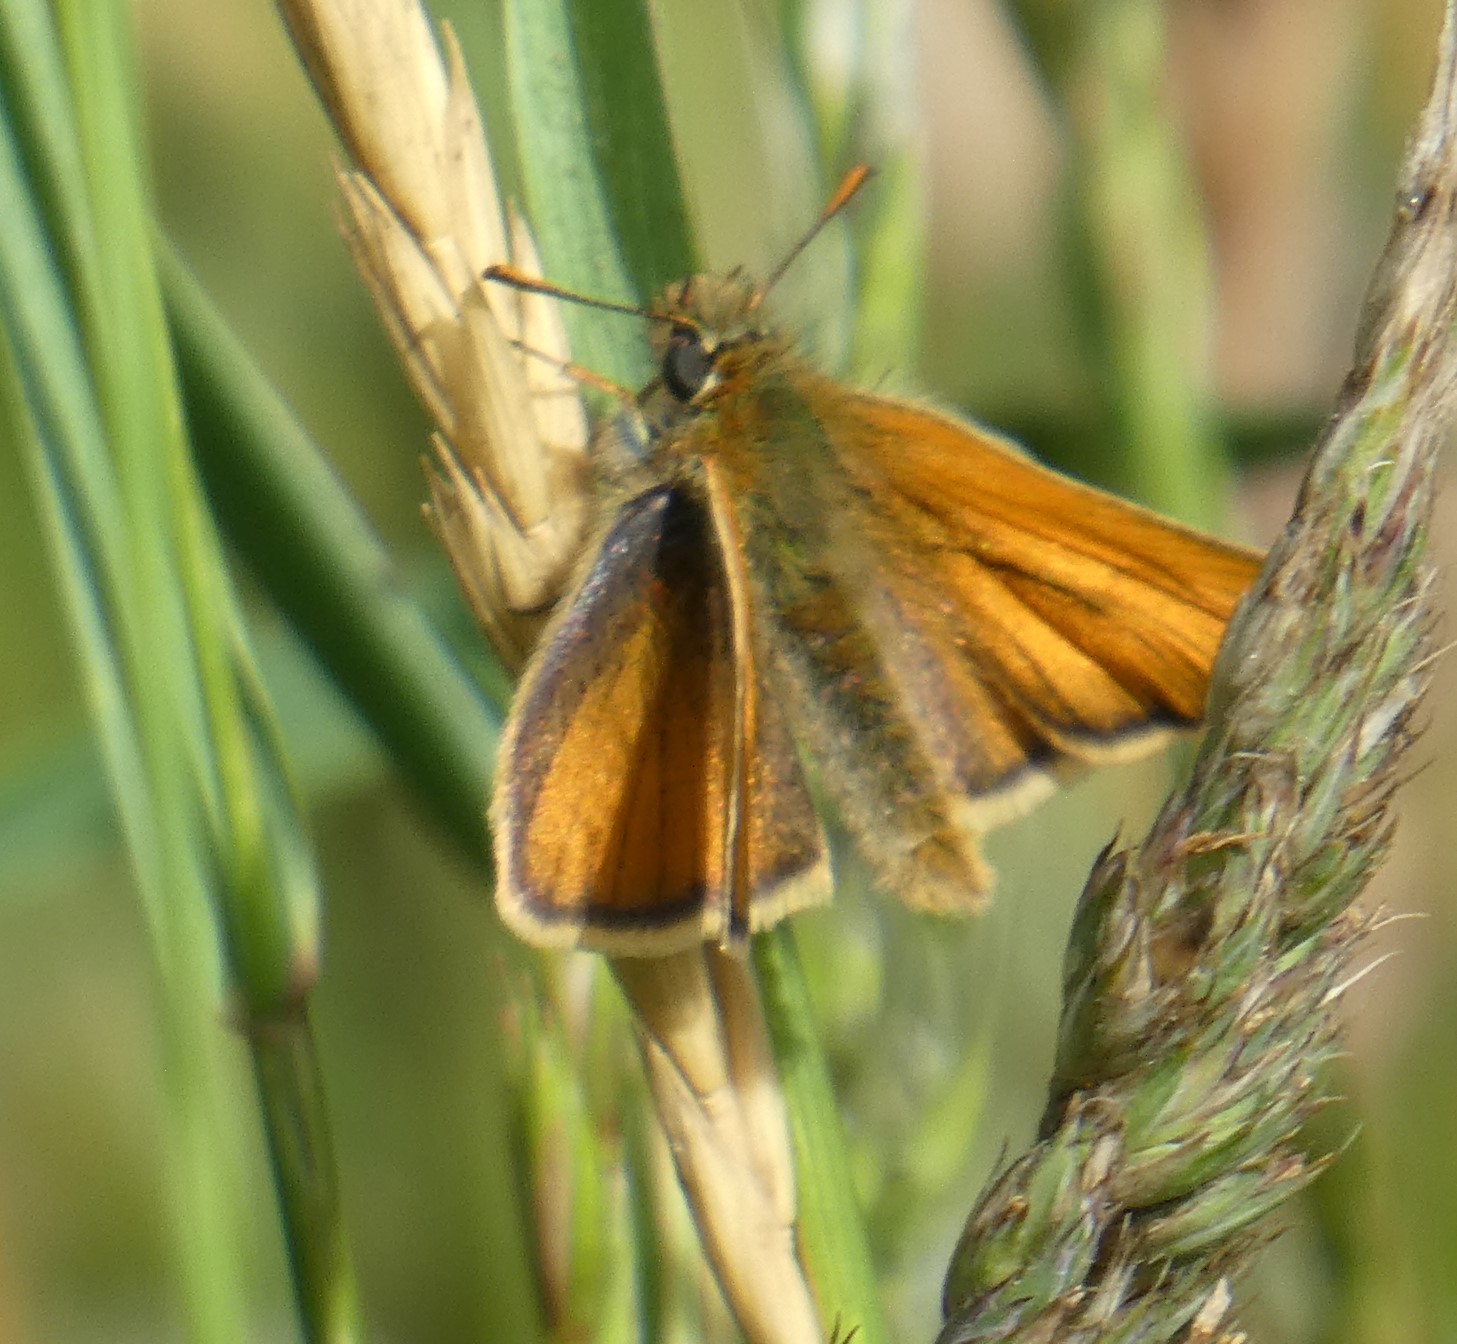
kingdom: Animalia
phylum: Arthropoda
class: Insecta
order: Lepidoptera
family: Hesperiidae
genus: Thymelicus
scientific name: Thymelicus sylvestris
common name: Small skipper
